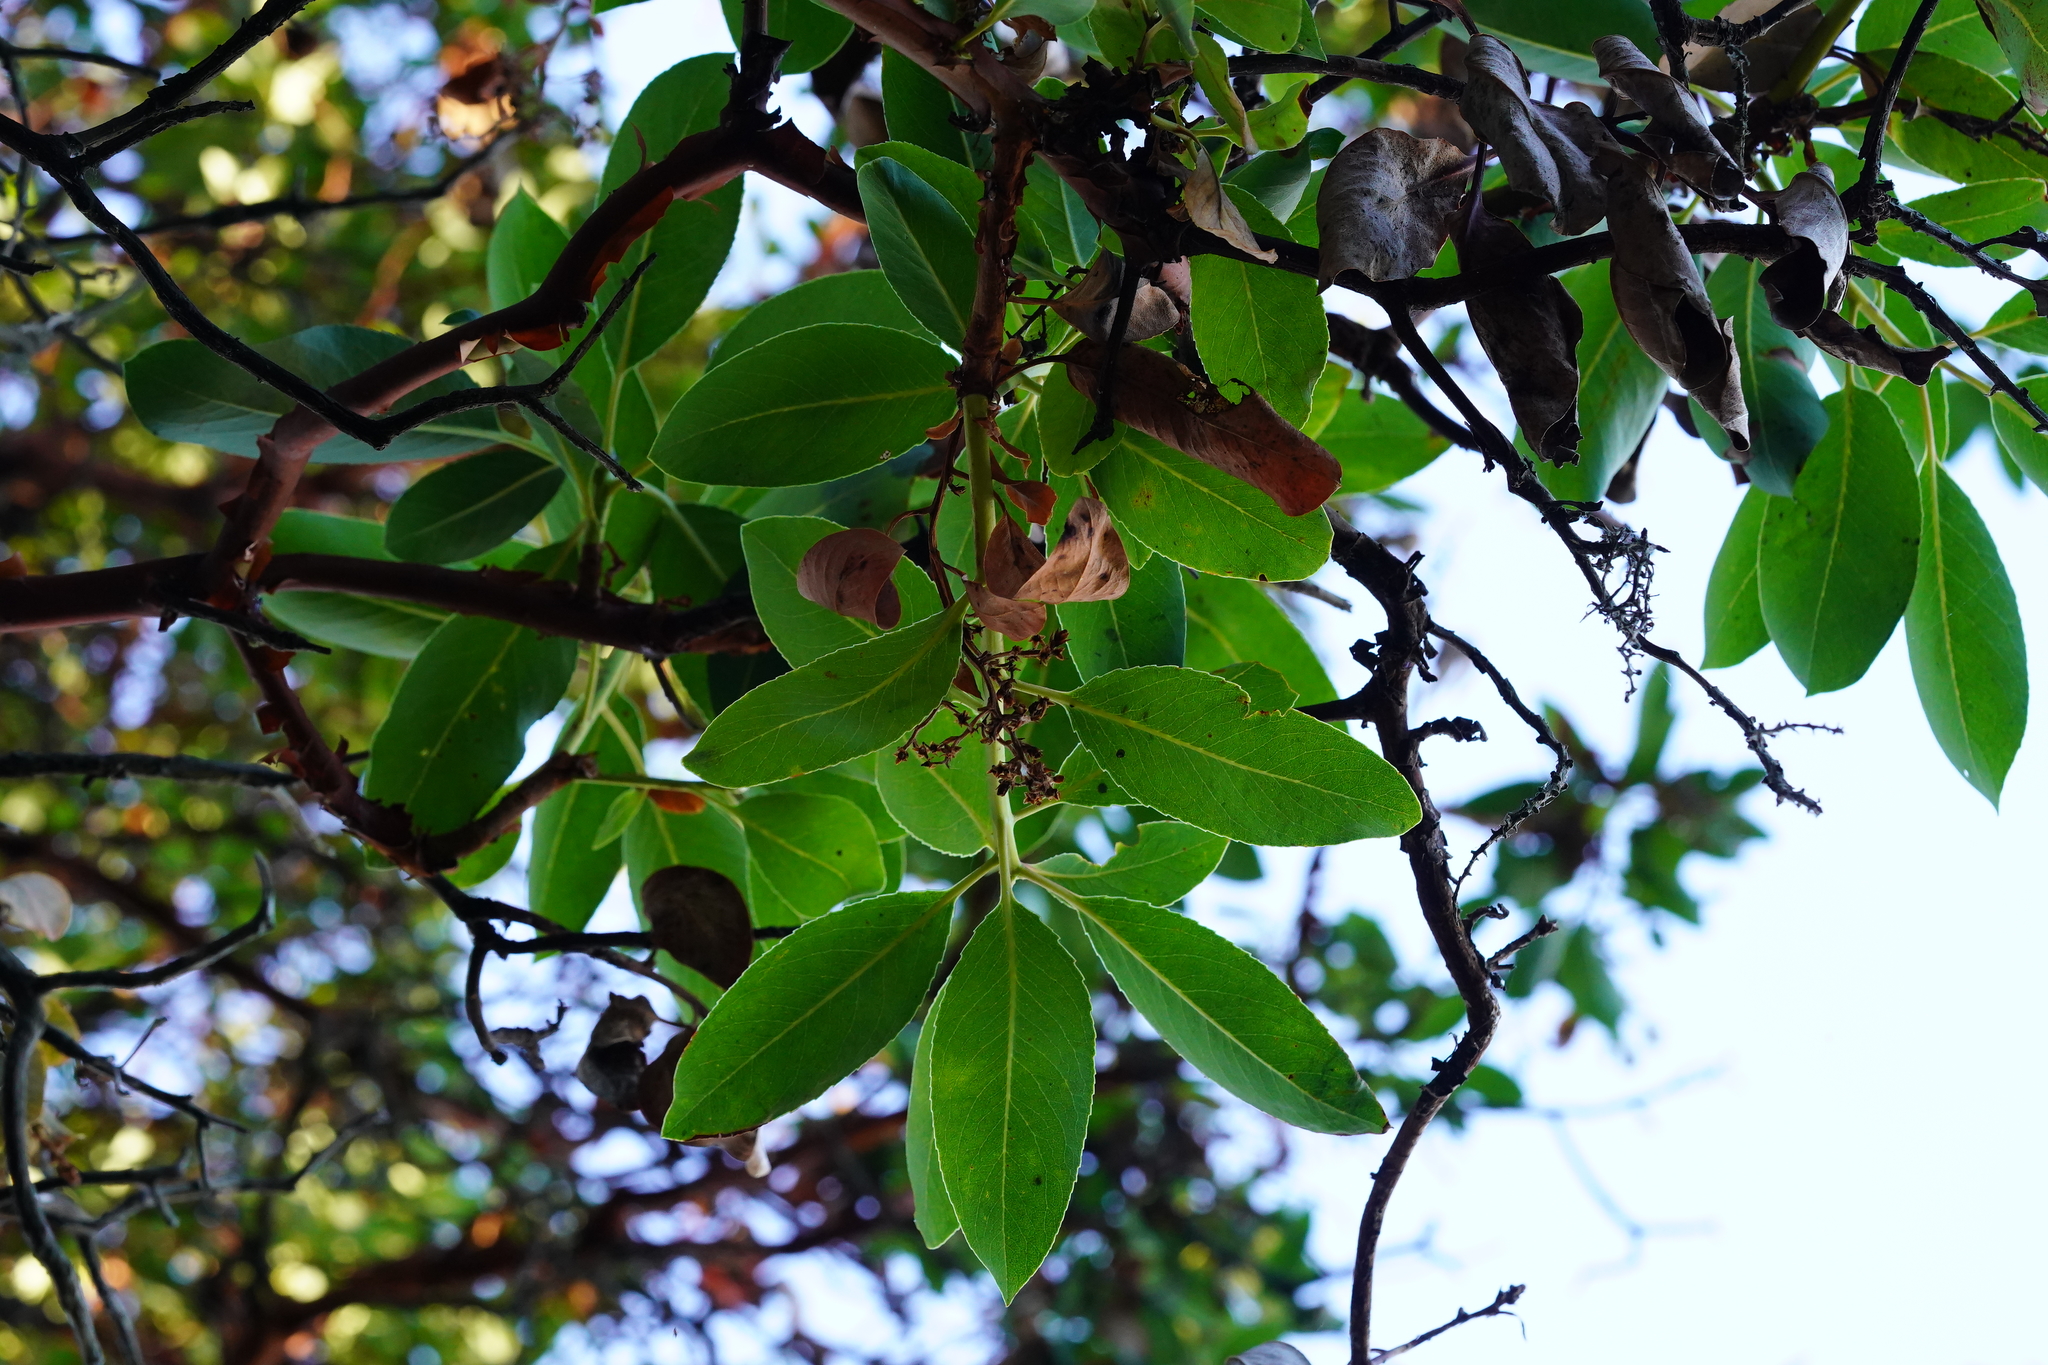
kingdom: Plantae
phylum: Tracheophyta
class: Magnoliopsida
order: Ericales
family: Ericaceae
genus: Arbutus
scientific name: Arbutus menziesii
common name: Pacific madrone
